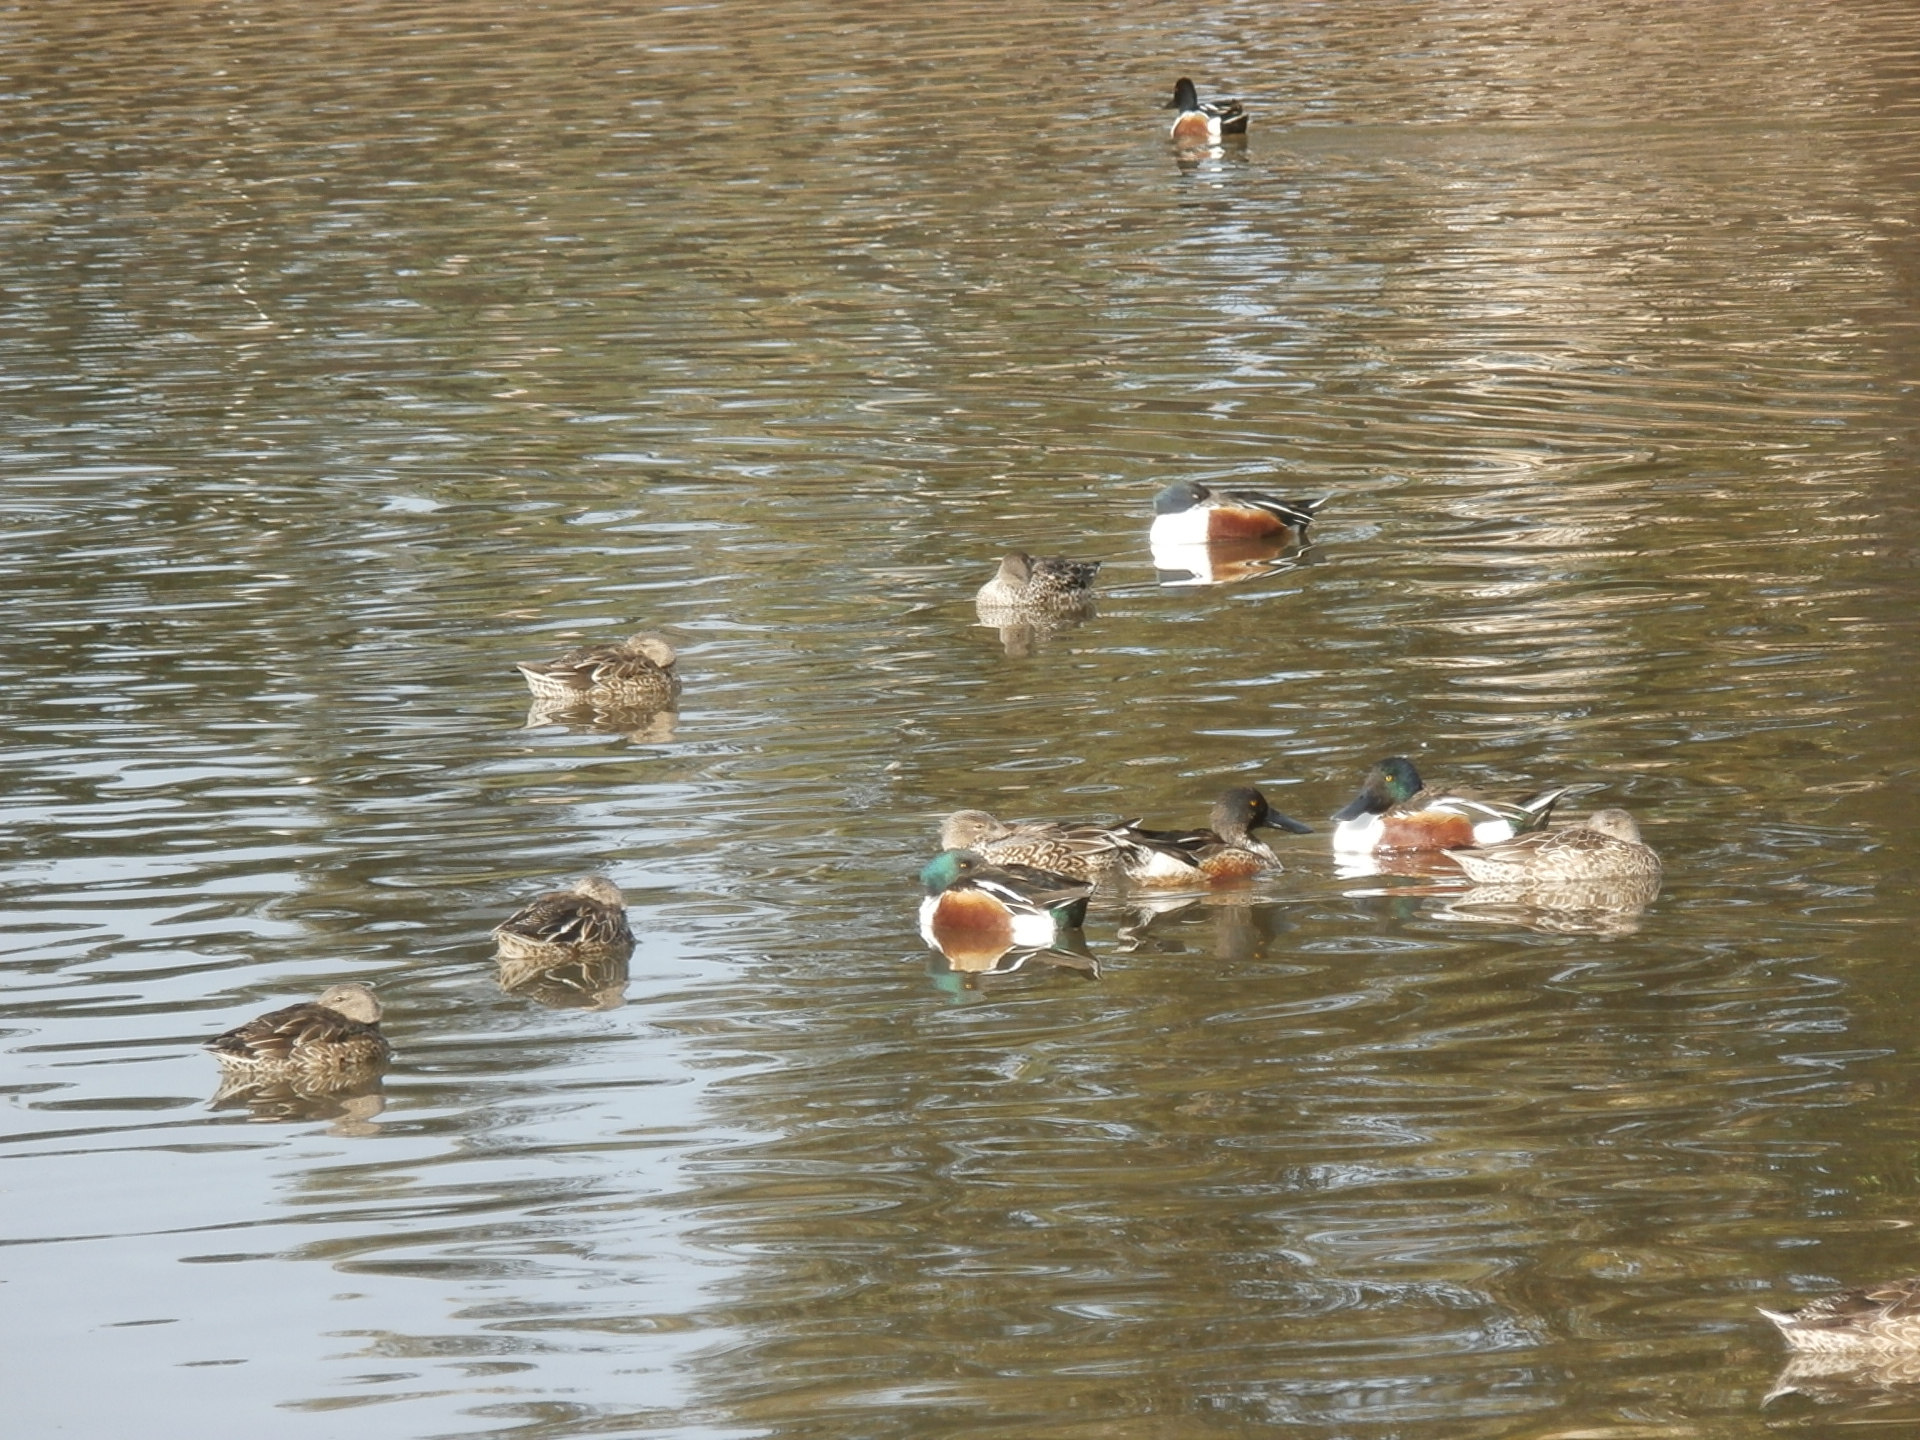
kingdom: Animalia
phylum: Chordata
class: Aves
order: Anseriformes
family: Anatidae
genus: Spatula
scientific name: Spatula clypeata
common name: Northern shoveler
